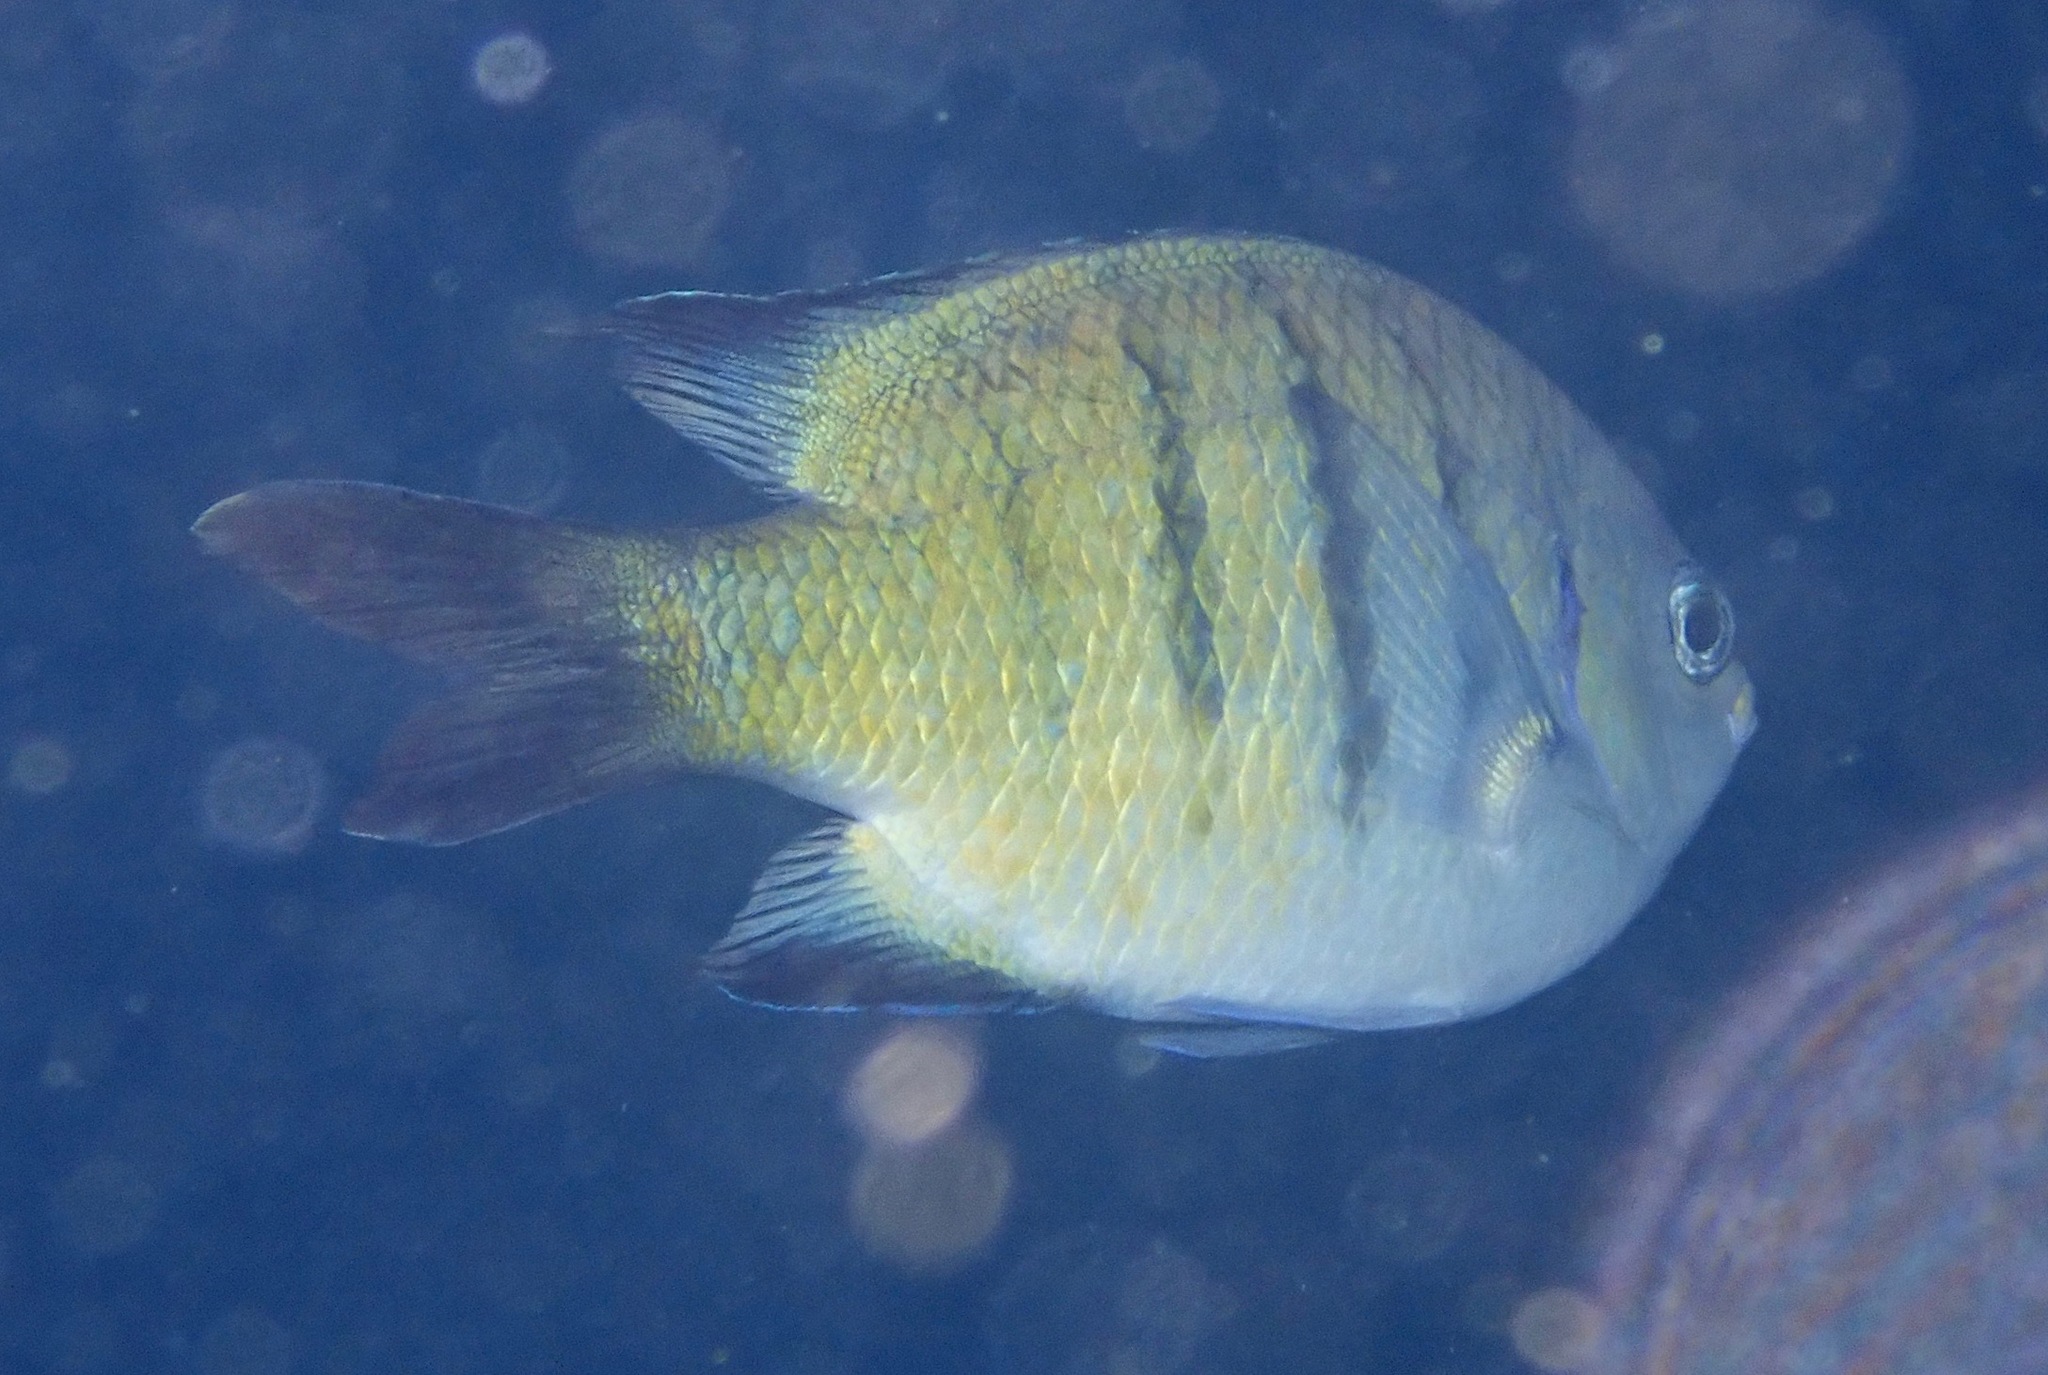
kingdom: Animalia
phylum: Chordata
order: Perciformes
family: Pomacentridae
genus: Abudefduf
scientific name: Abudefduf whitleyi
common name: Whitley's seargent
